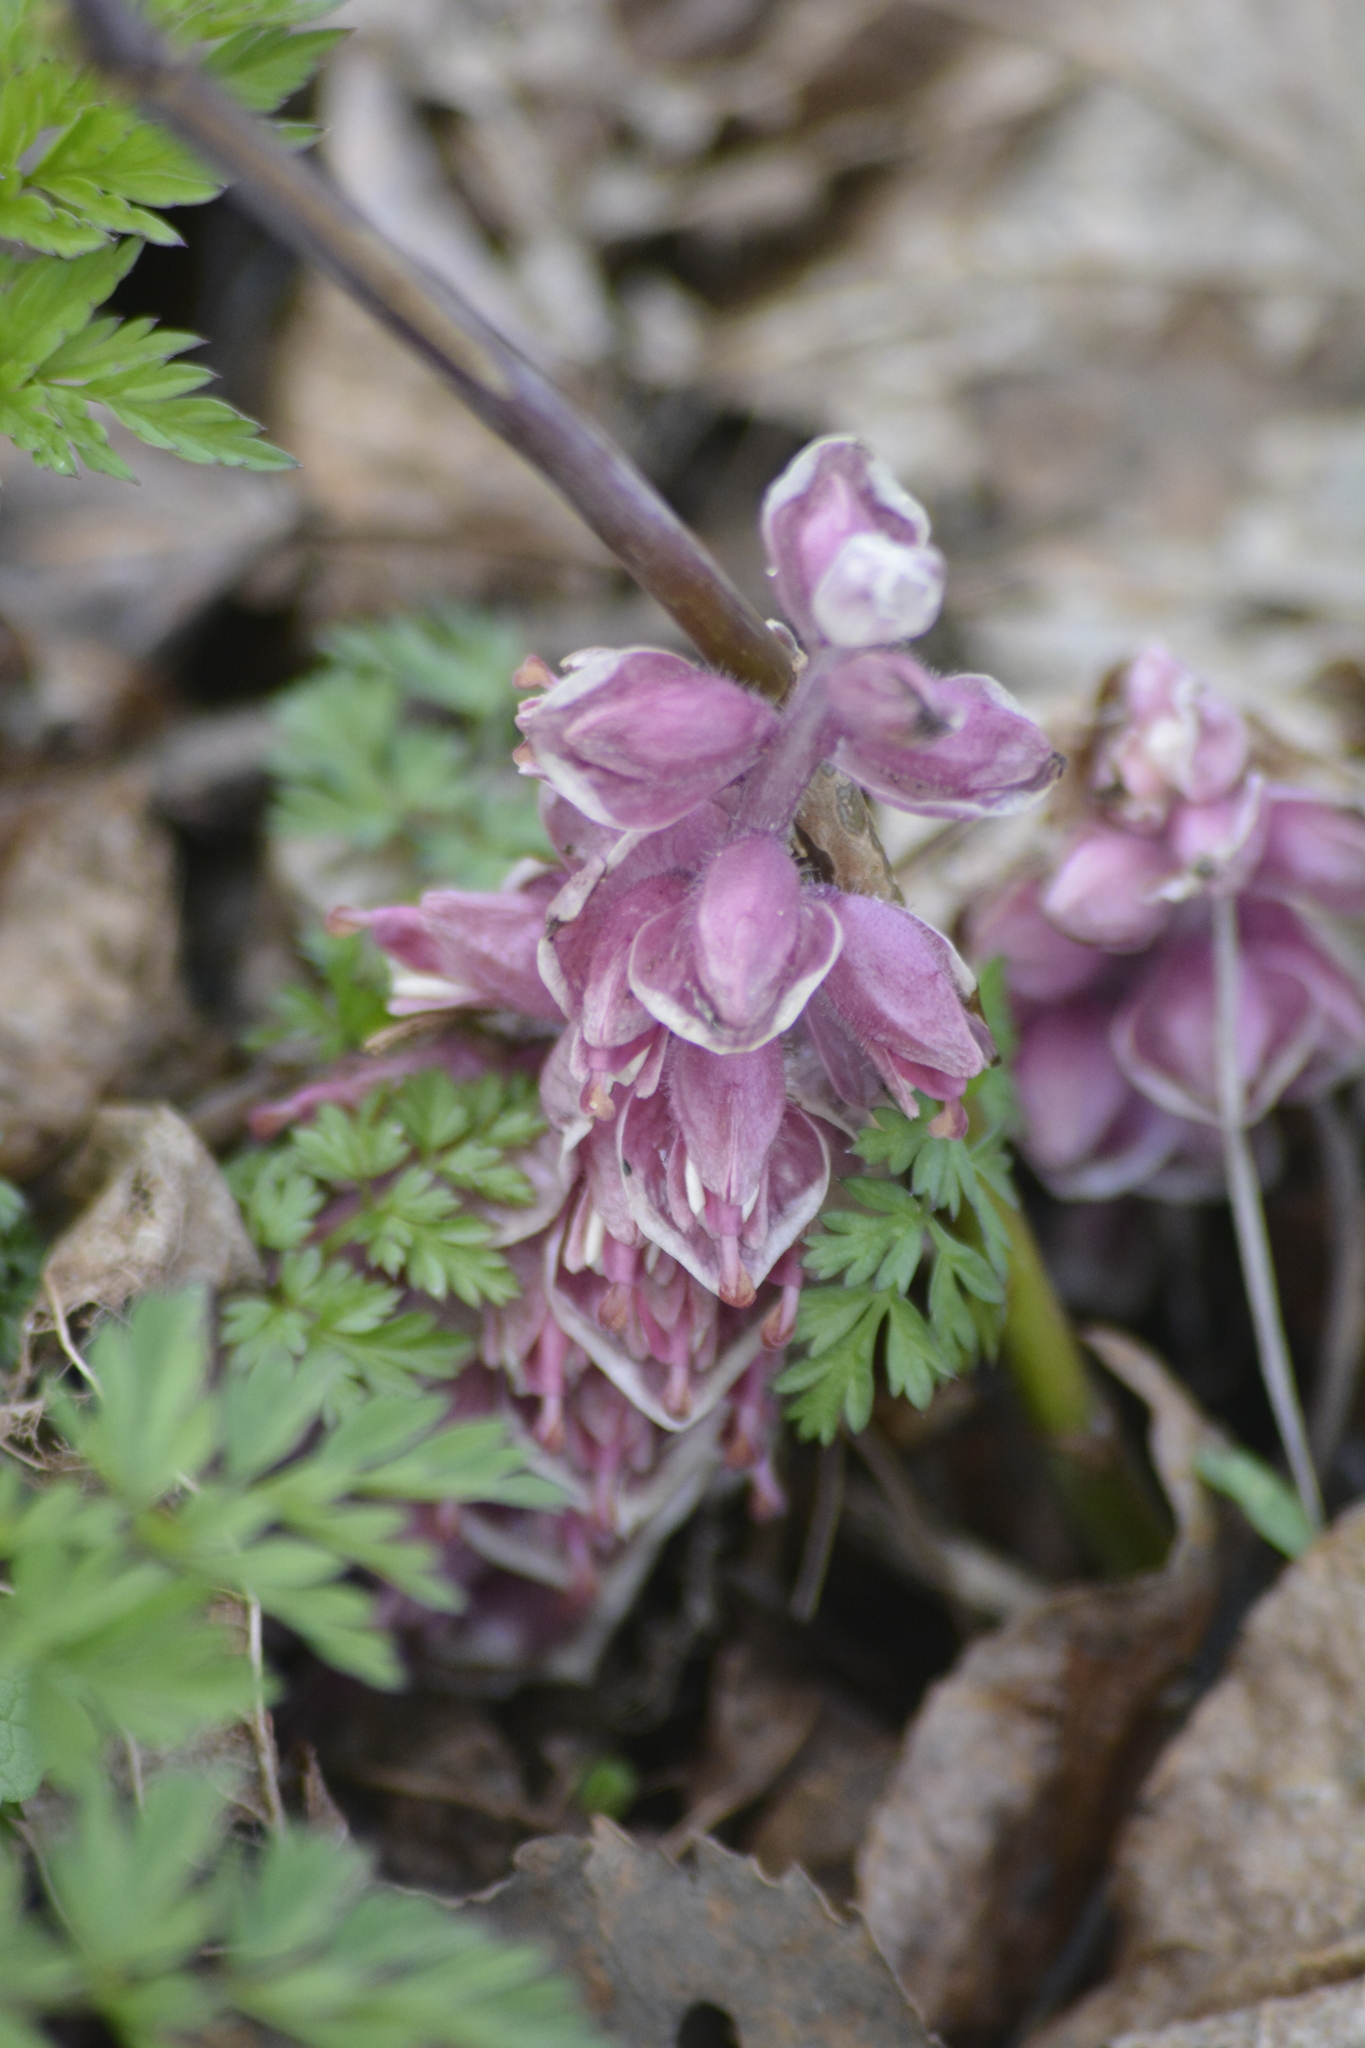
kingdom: Plantae
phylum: Tracheophyta
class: Magnoliopsida
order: Lamiales
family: Orobanchaceae
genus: Lathraea
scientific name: Lathraea squamaria
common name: Toothwort
